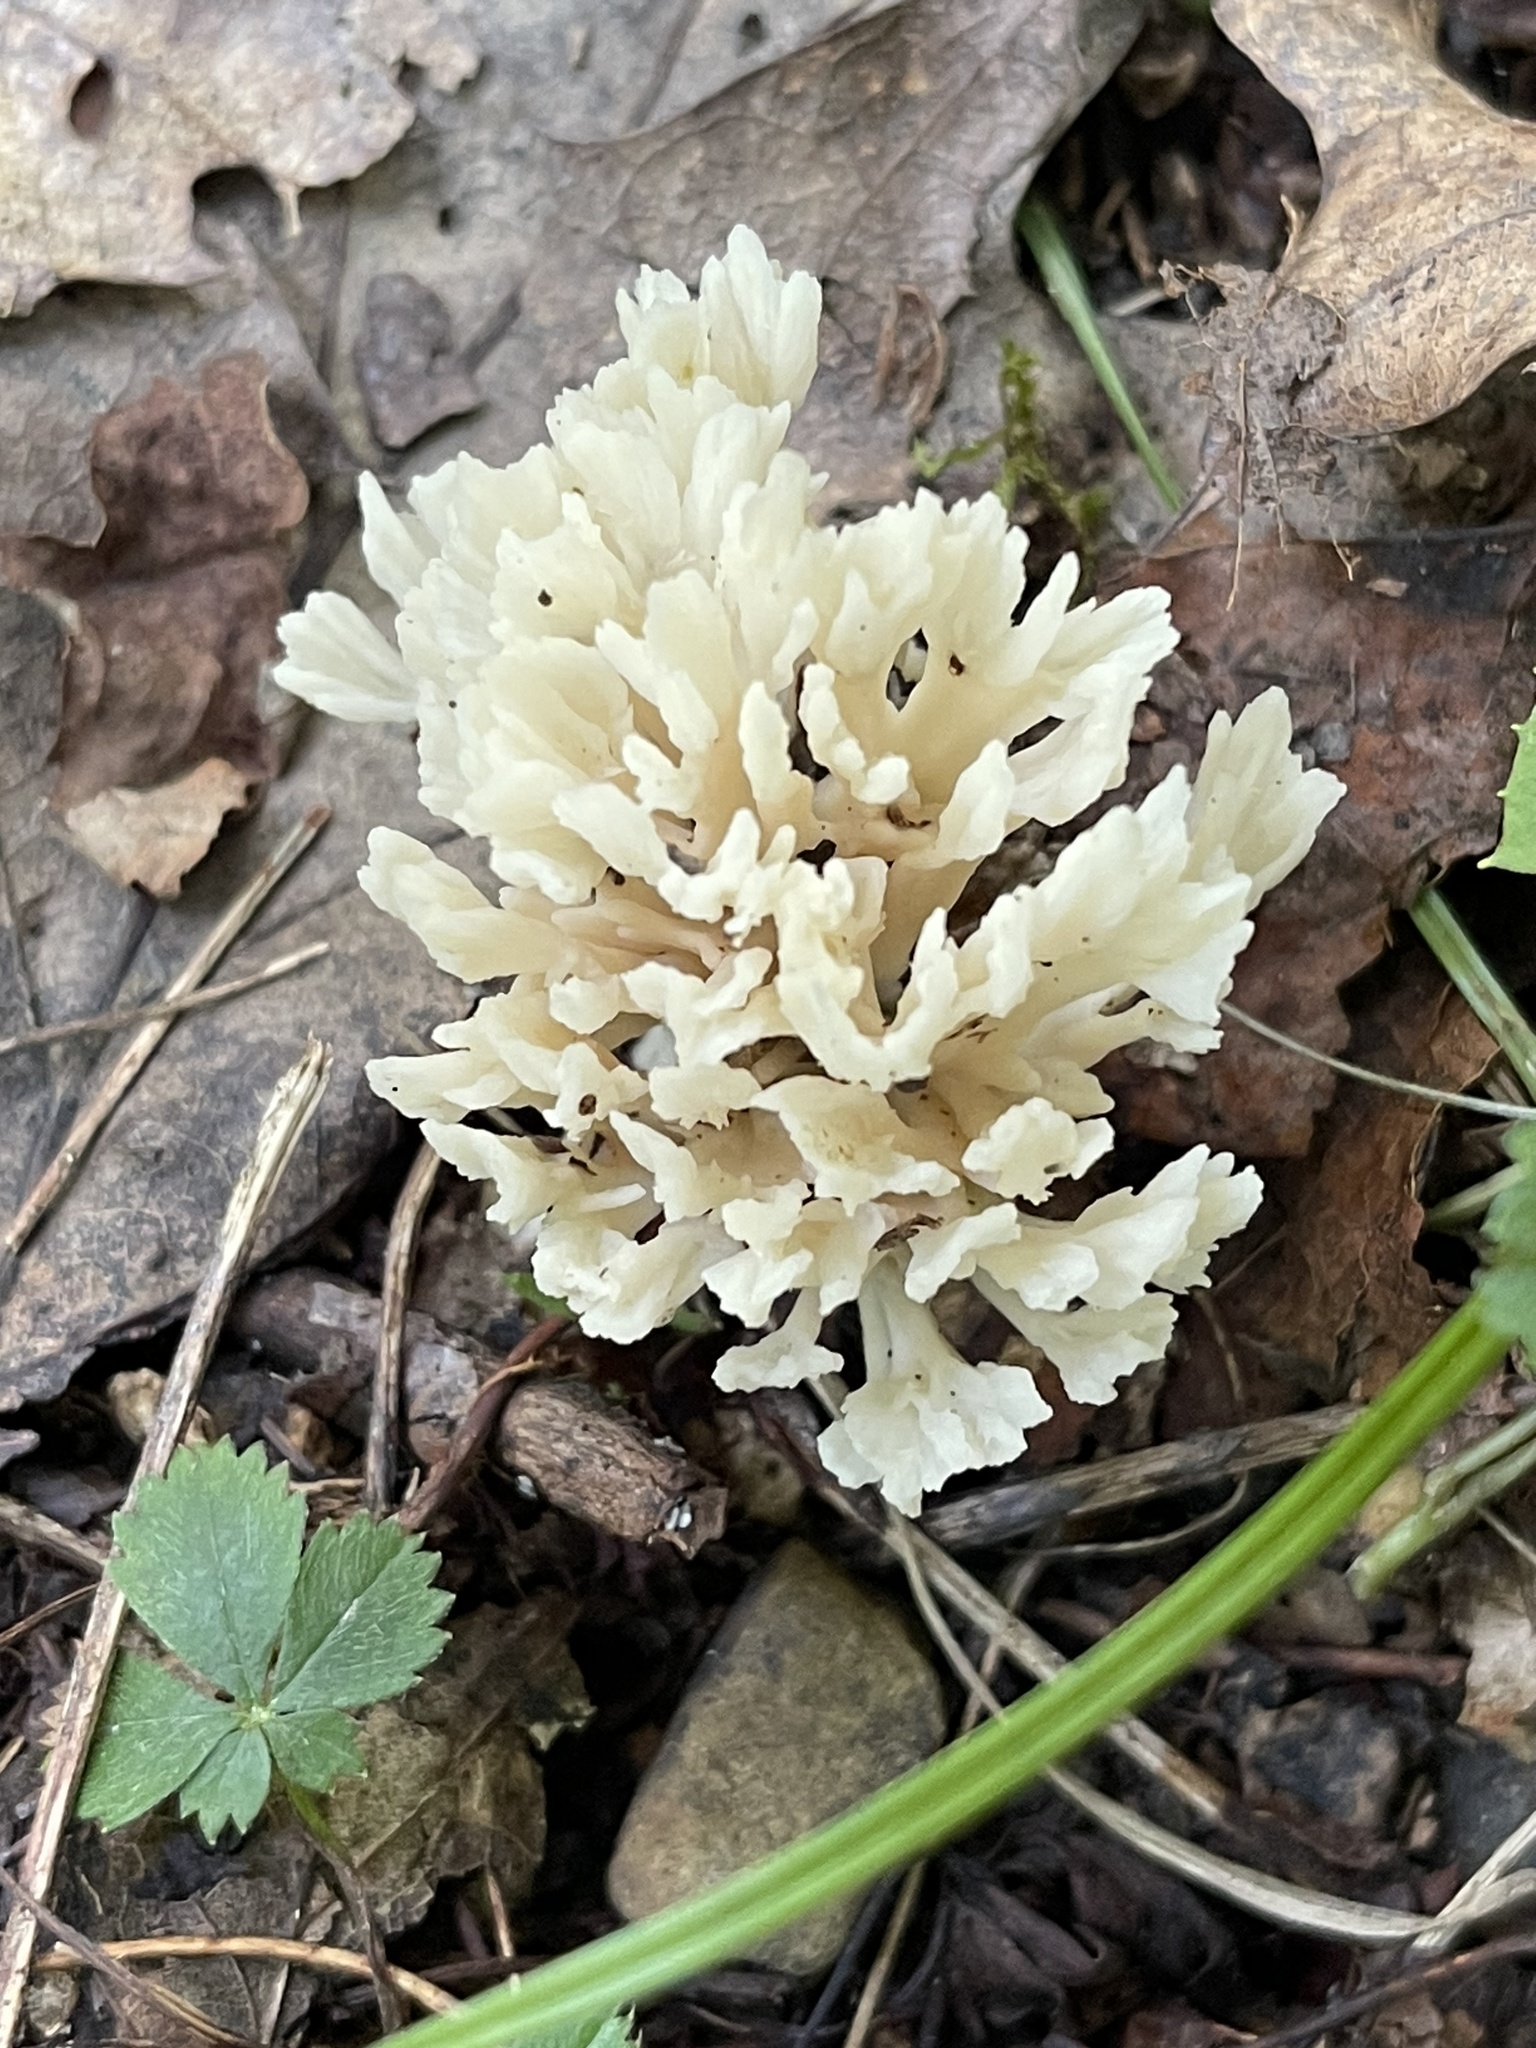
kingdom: Fungi
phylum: Basidiomycota
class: Agaricomycetes
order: Sebacinales
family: Sebacinaceae
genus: Sebacina
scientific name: Sebacina schweinitzii
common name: Jellied false coral fungus
